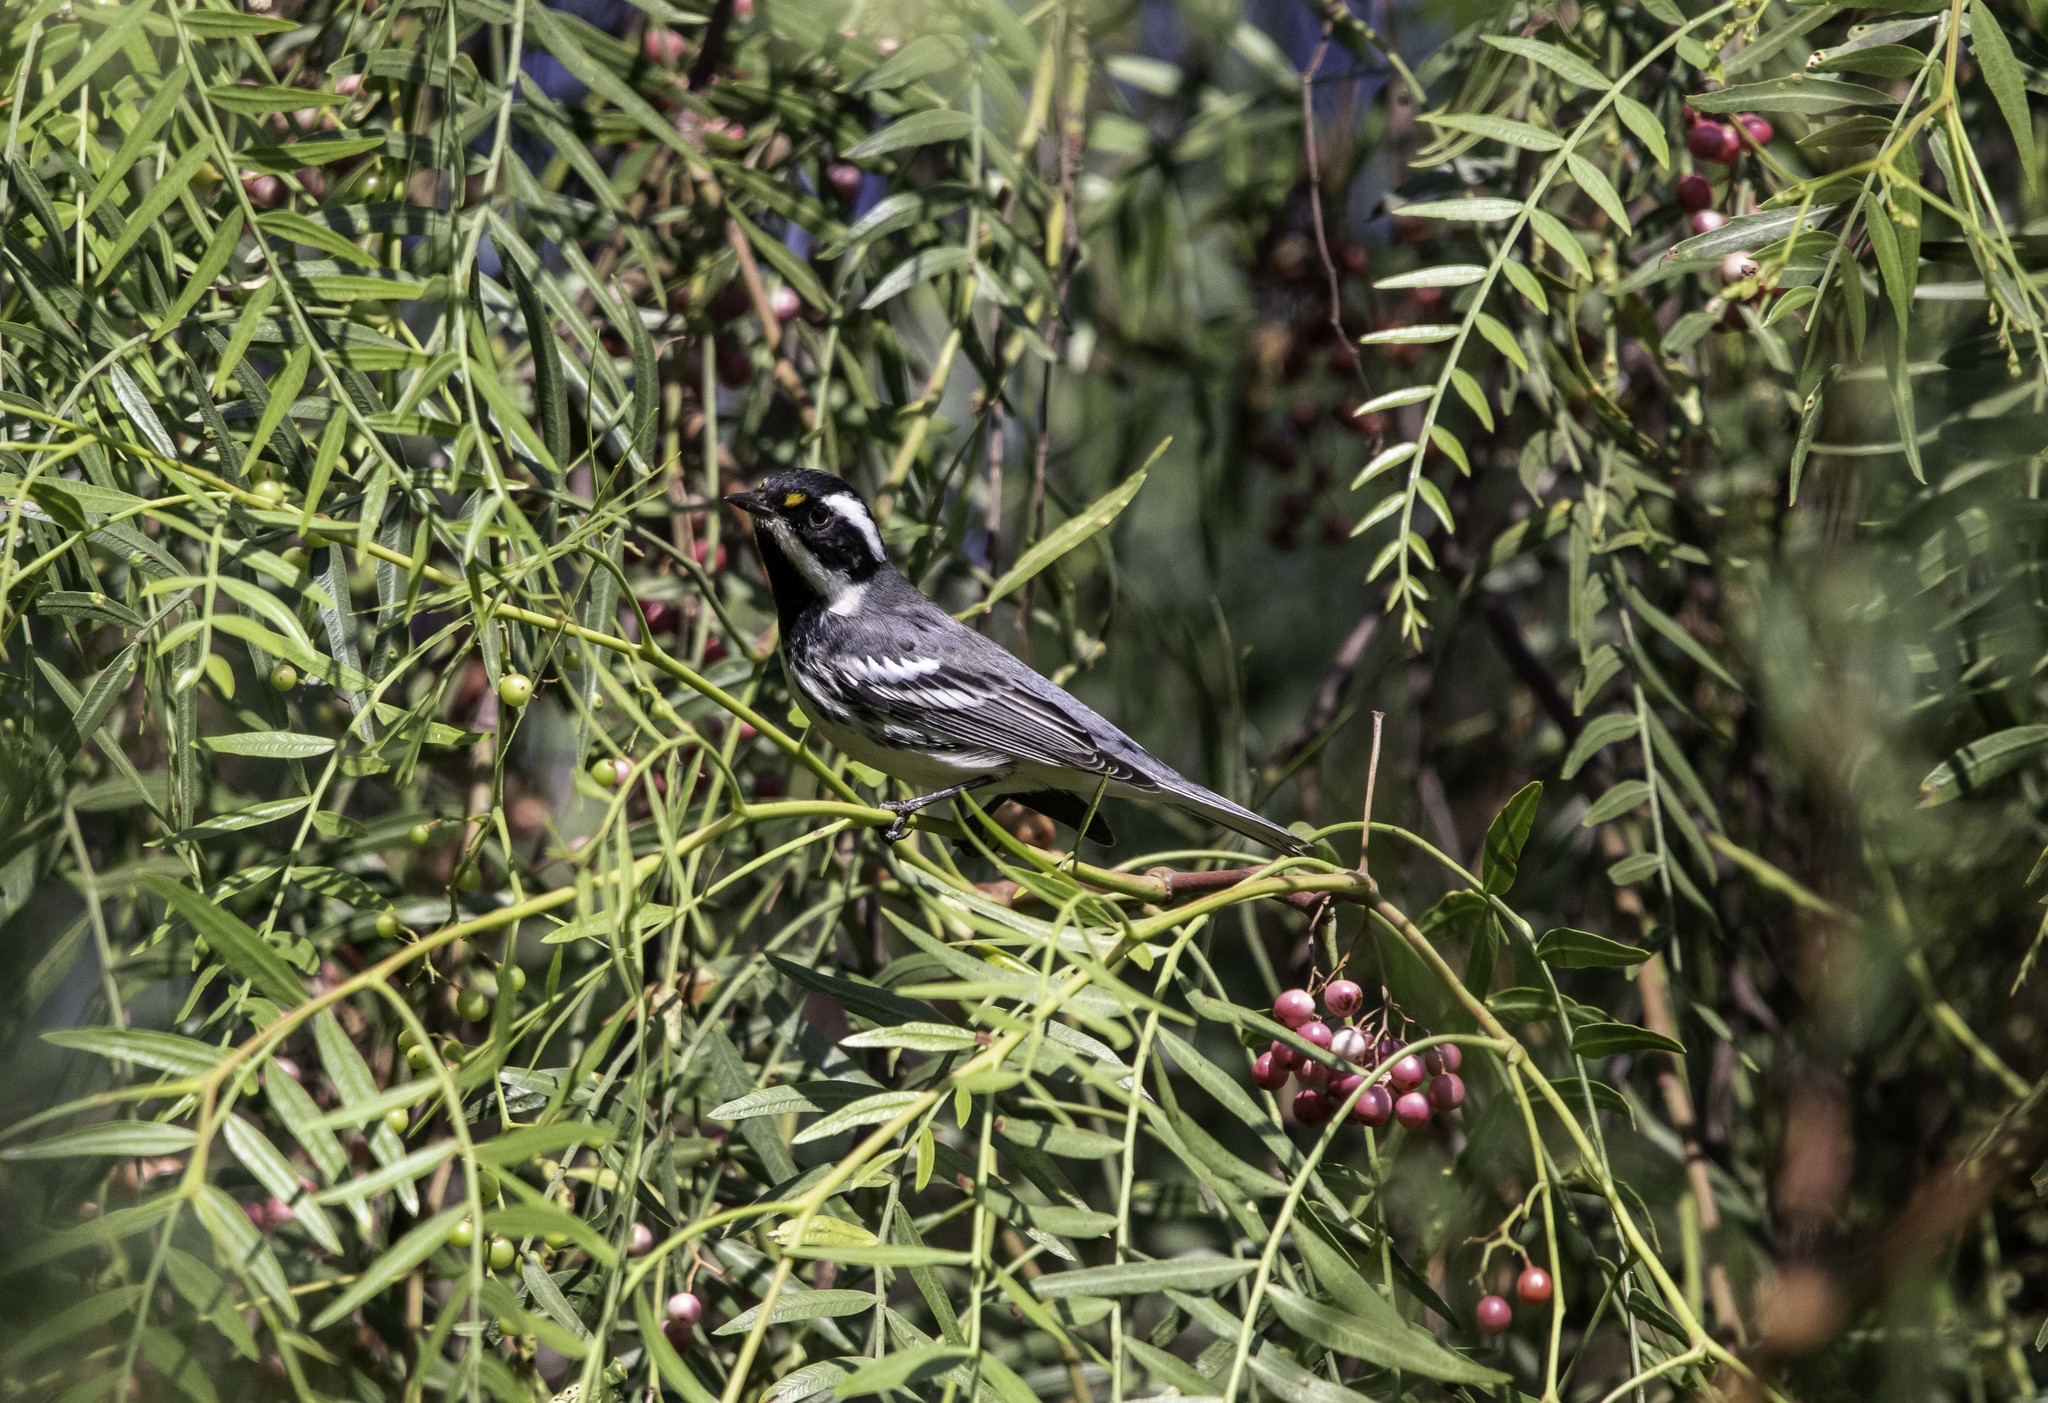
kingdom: Animalia
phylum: Chordata
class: Aves
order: Passeriformes
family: Parulidae
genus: Setophaga
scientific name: Setophaga nigrescens
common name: Black-throated gray warbler
